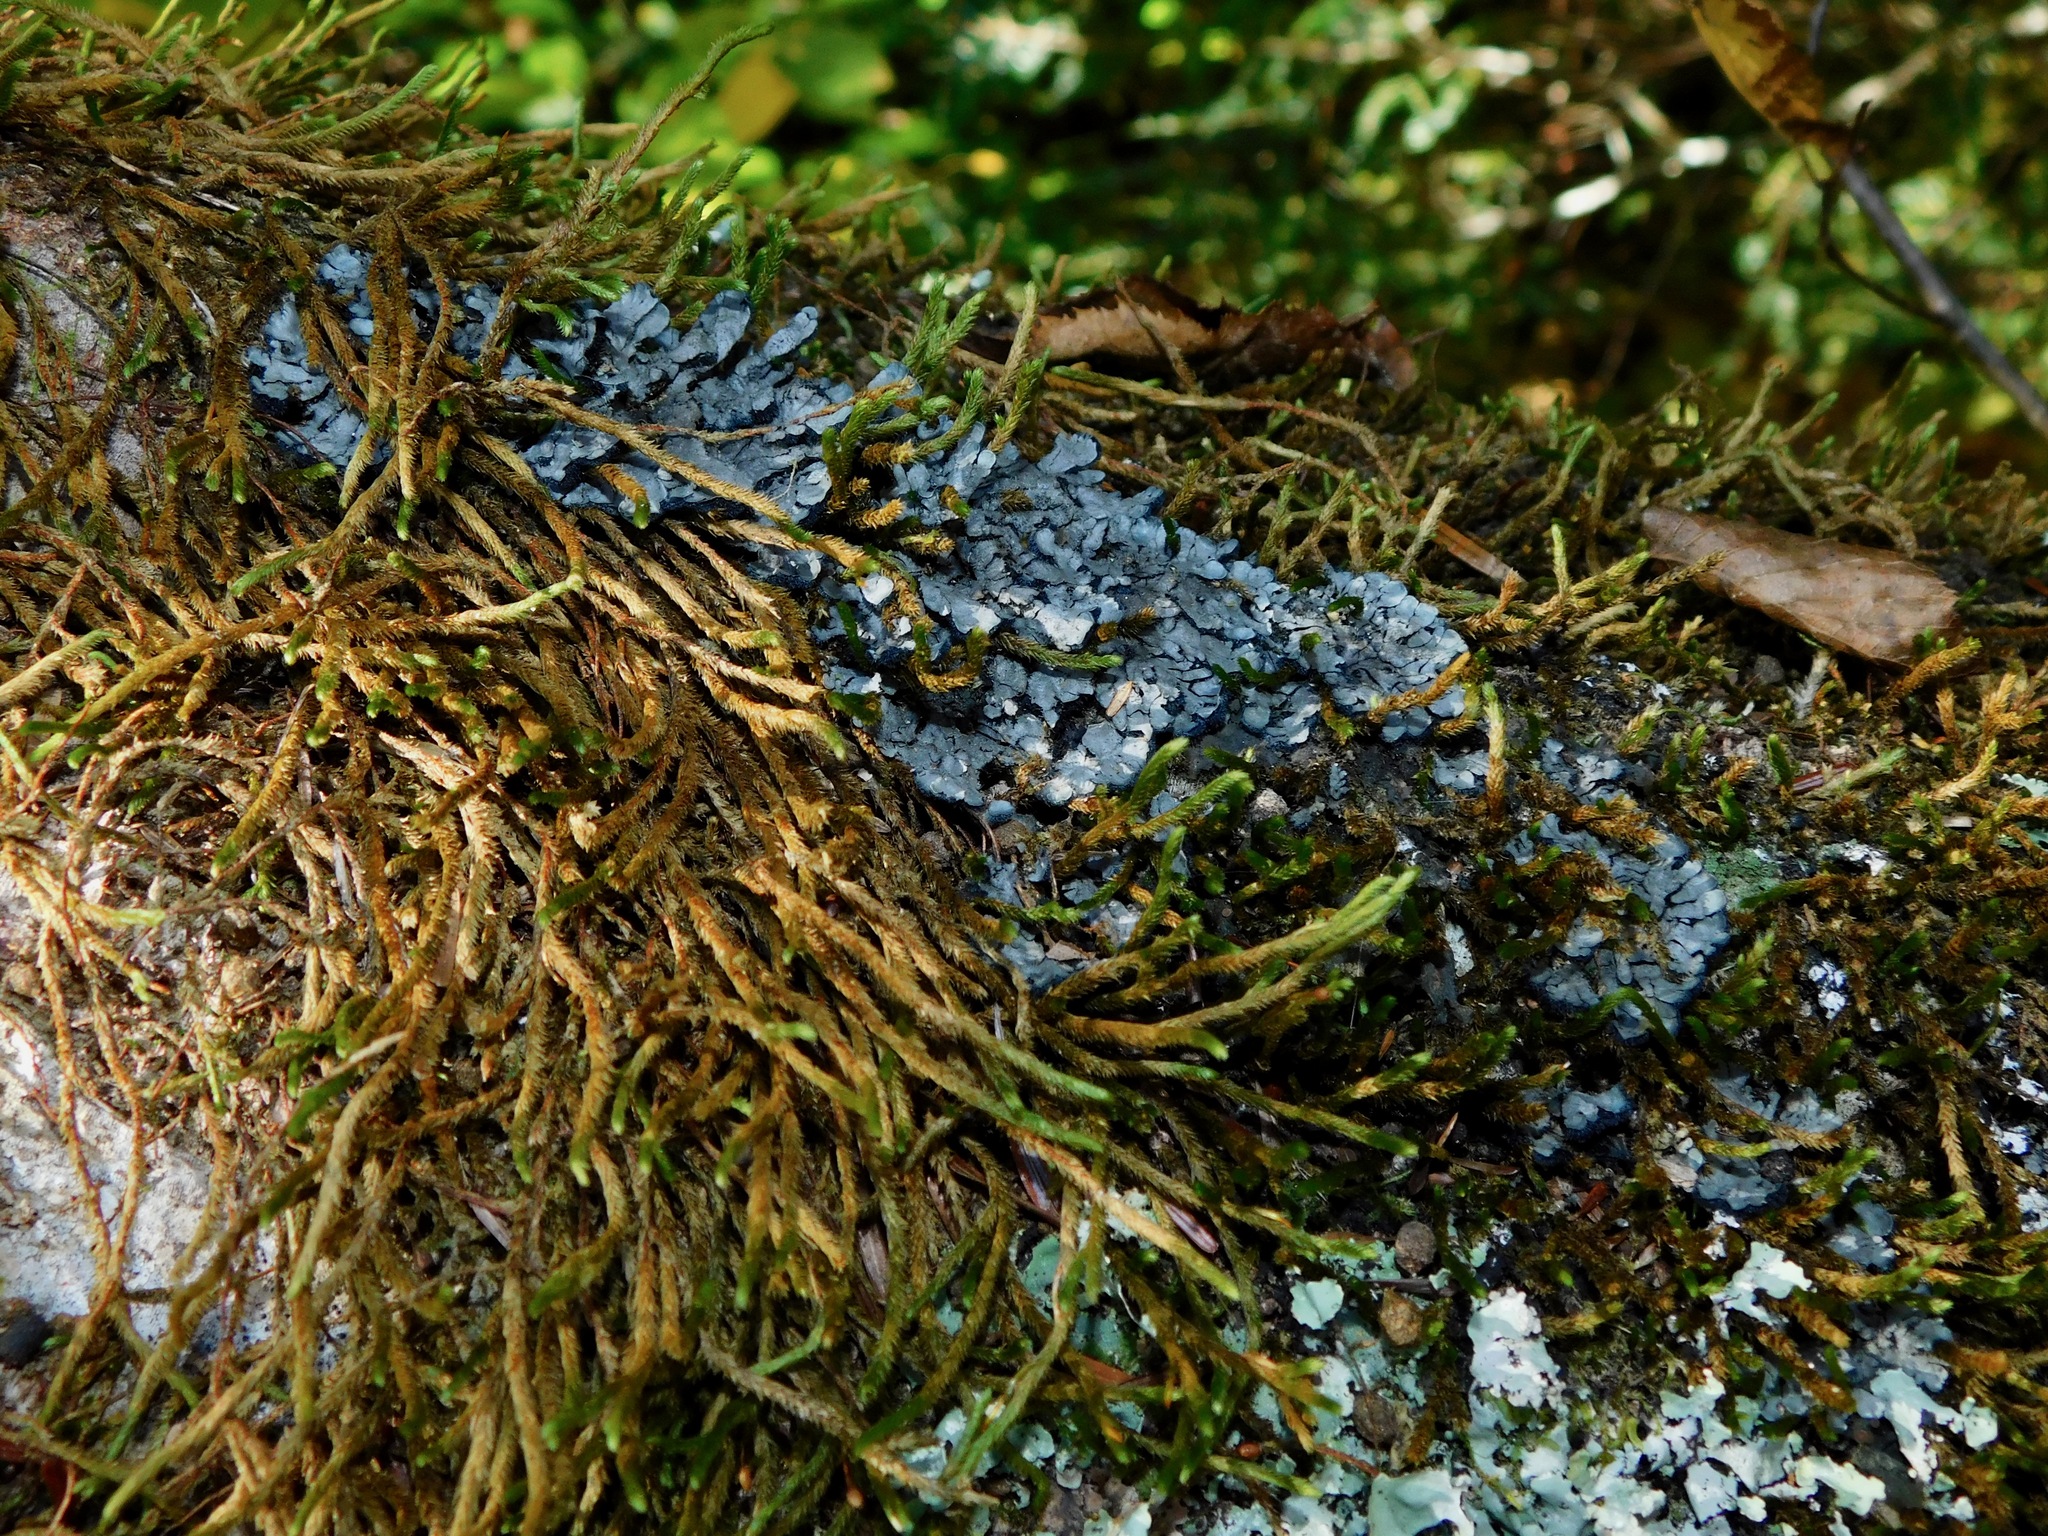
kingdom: Fungi
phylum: Ascomycota
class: Lecanoromycetes
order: Peltigerales
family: Coccocarpiaceae
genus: Coccocarpia
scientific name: Coccocarpia palmicola
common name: Salted shell lichen
